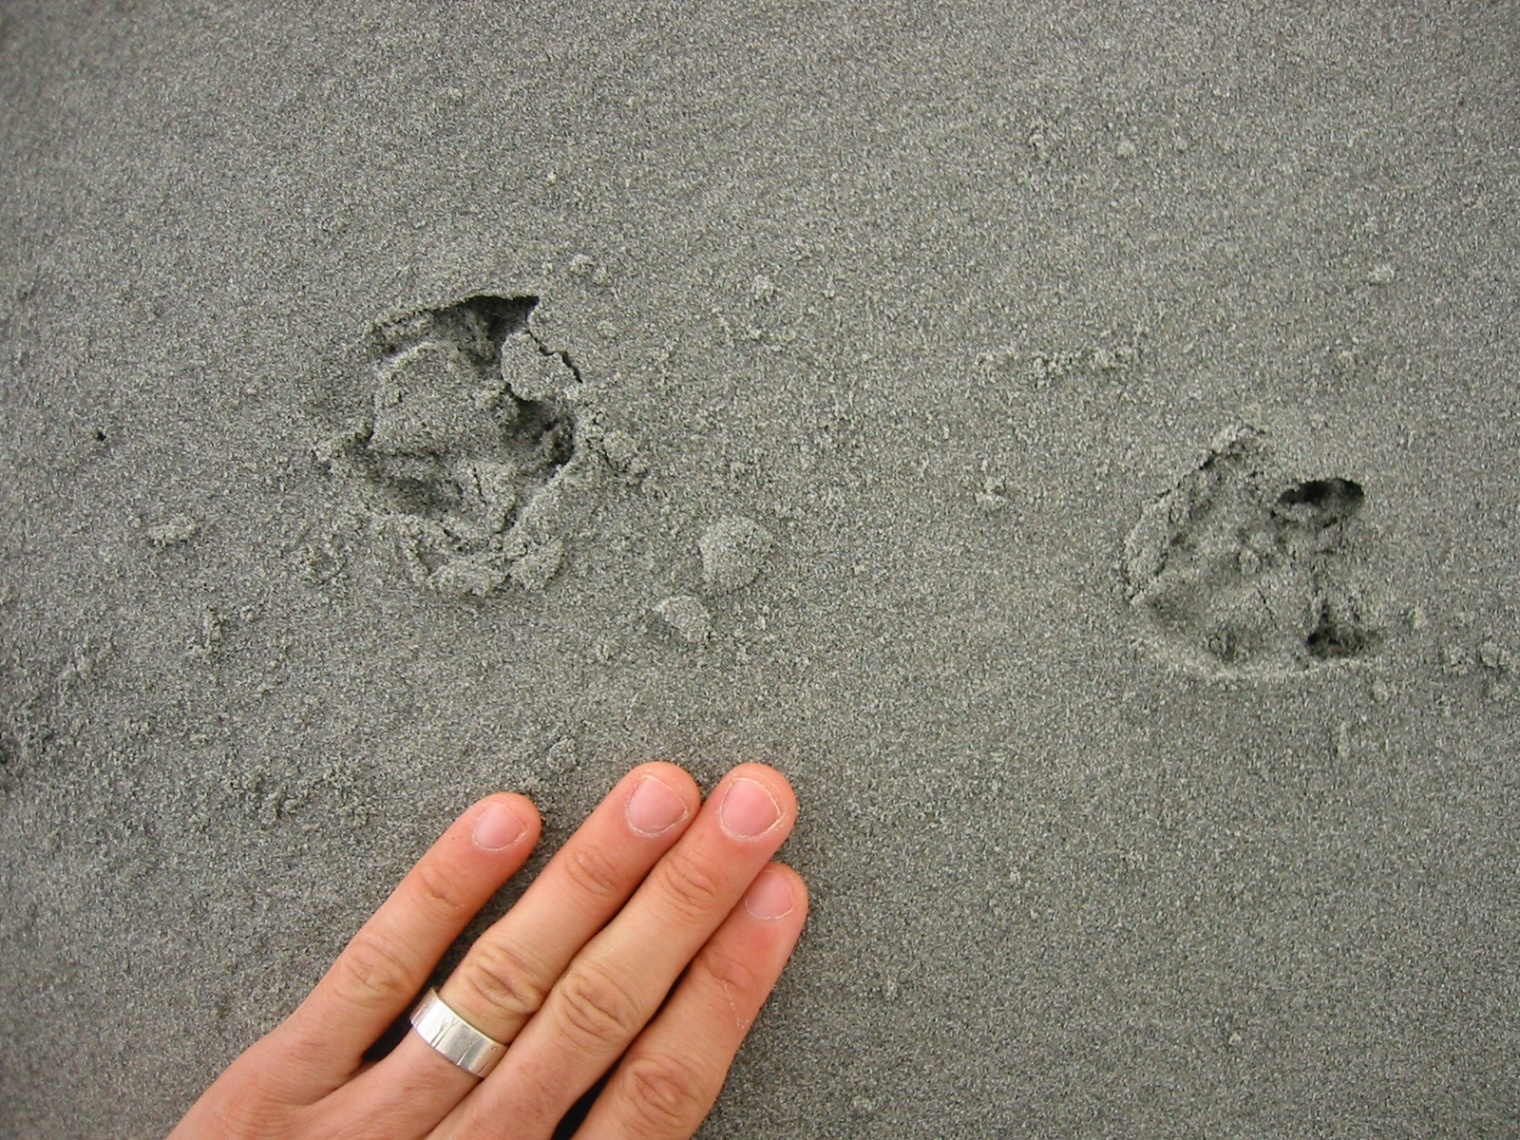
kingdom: Animalia
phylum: Chordata
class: Aves
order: Sphenisciformes
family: Spheniscidae
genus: Eudyptula
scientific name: Eudyptula minor
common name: Little penguin
